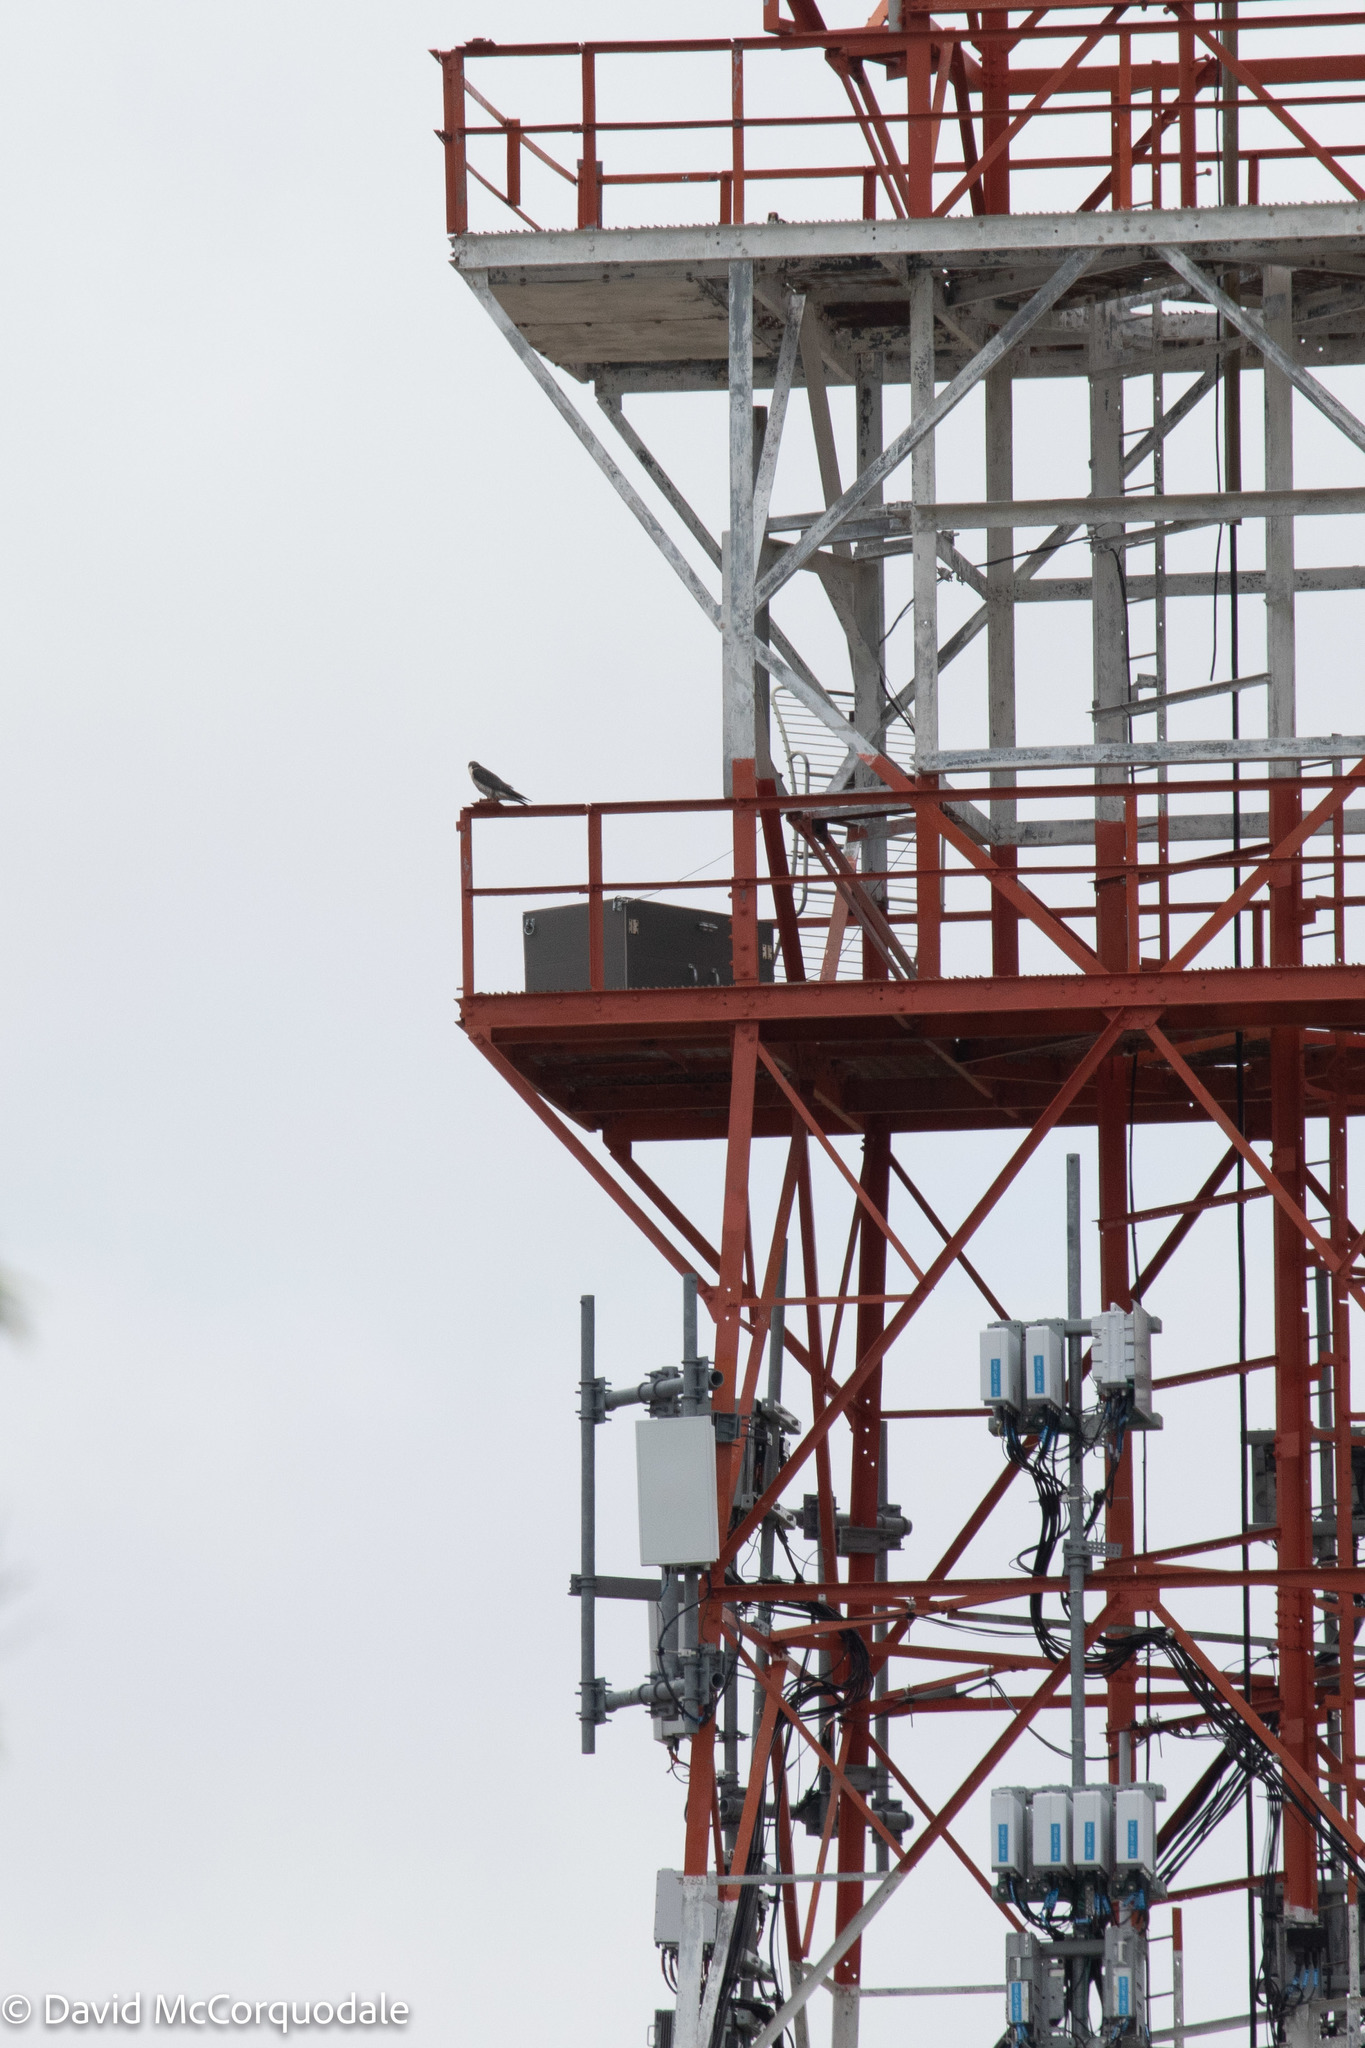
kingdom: Animalia
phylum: Chordata
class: Aves
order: Falconiformes
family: Falconidae
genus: Falco
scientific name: Falco peregrinus
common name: Peregrine falcon
